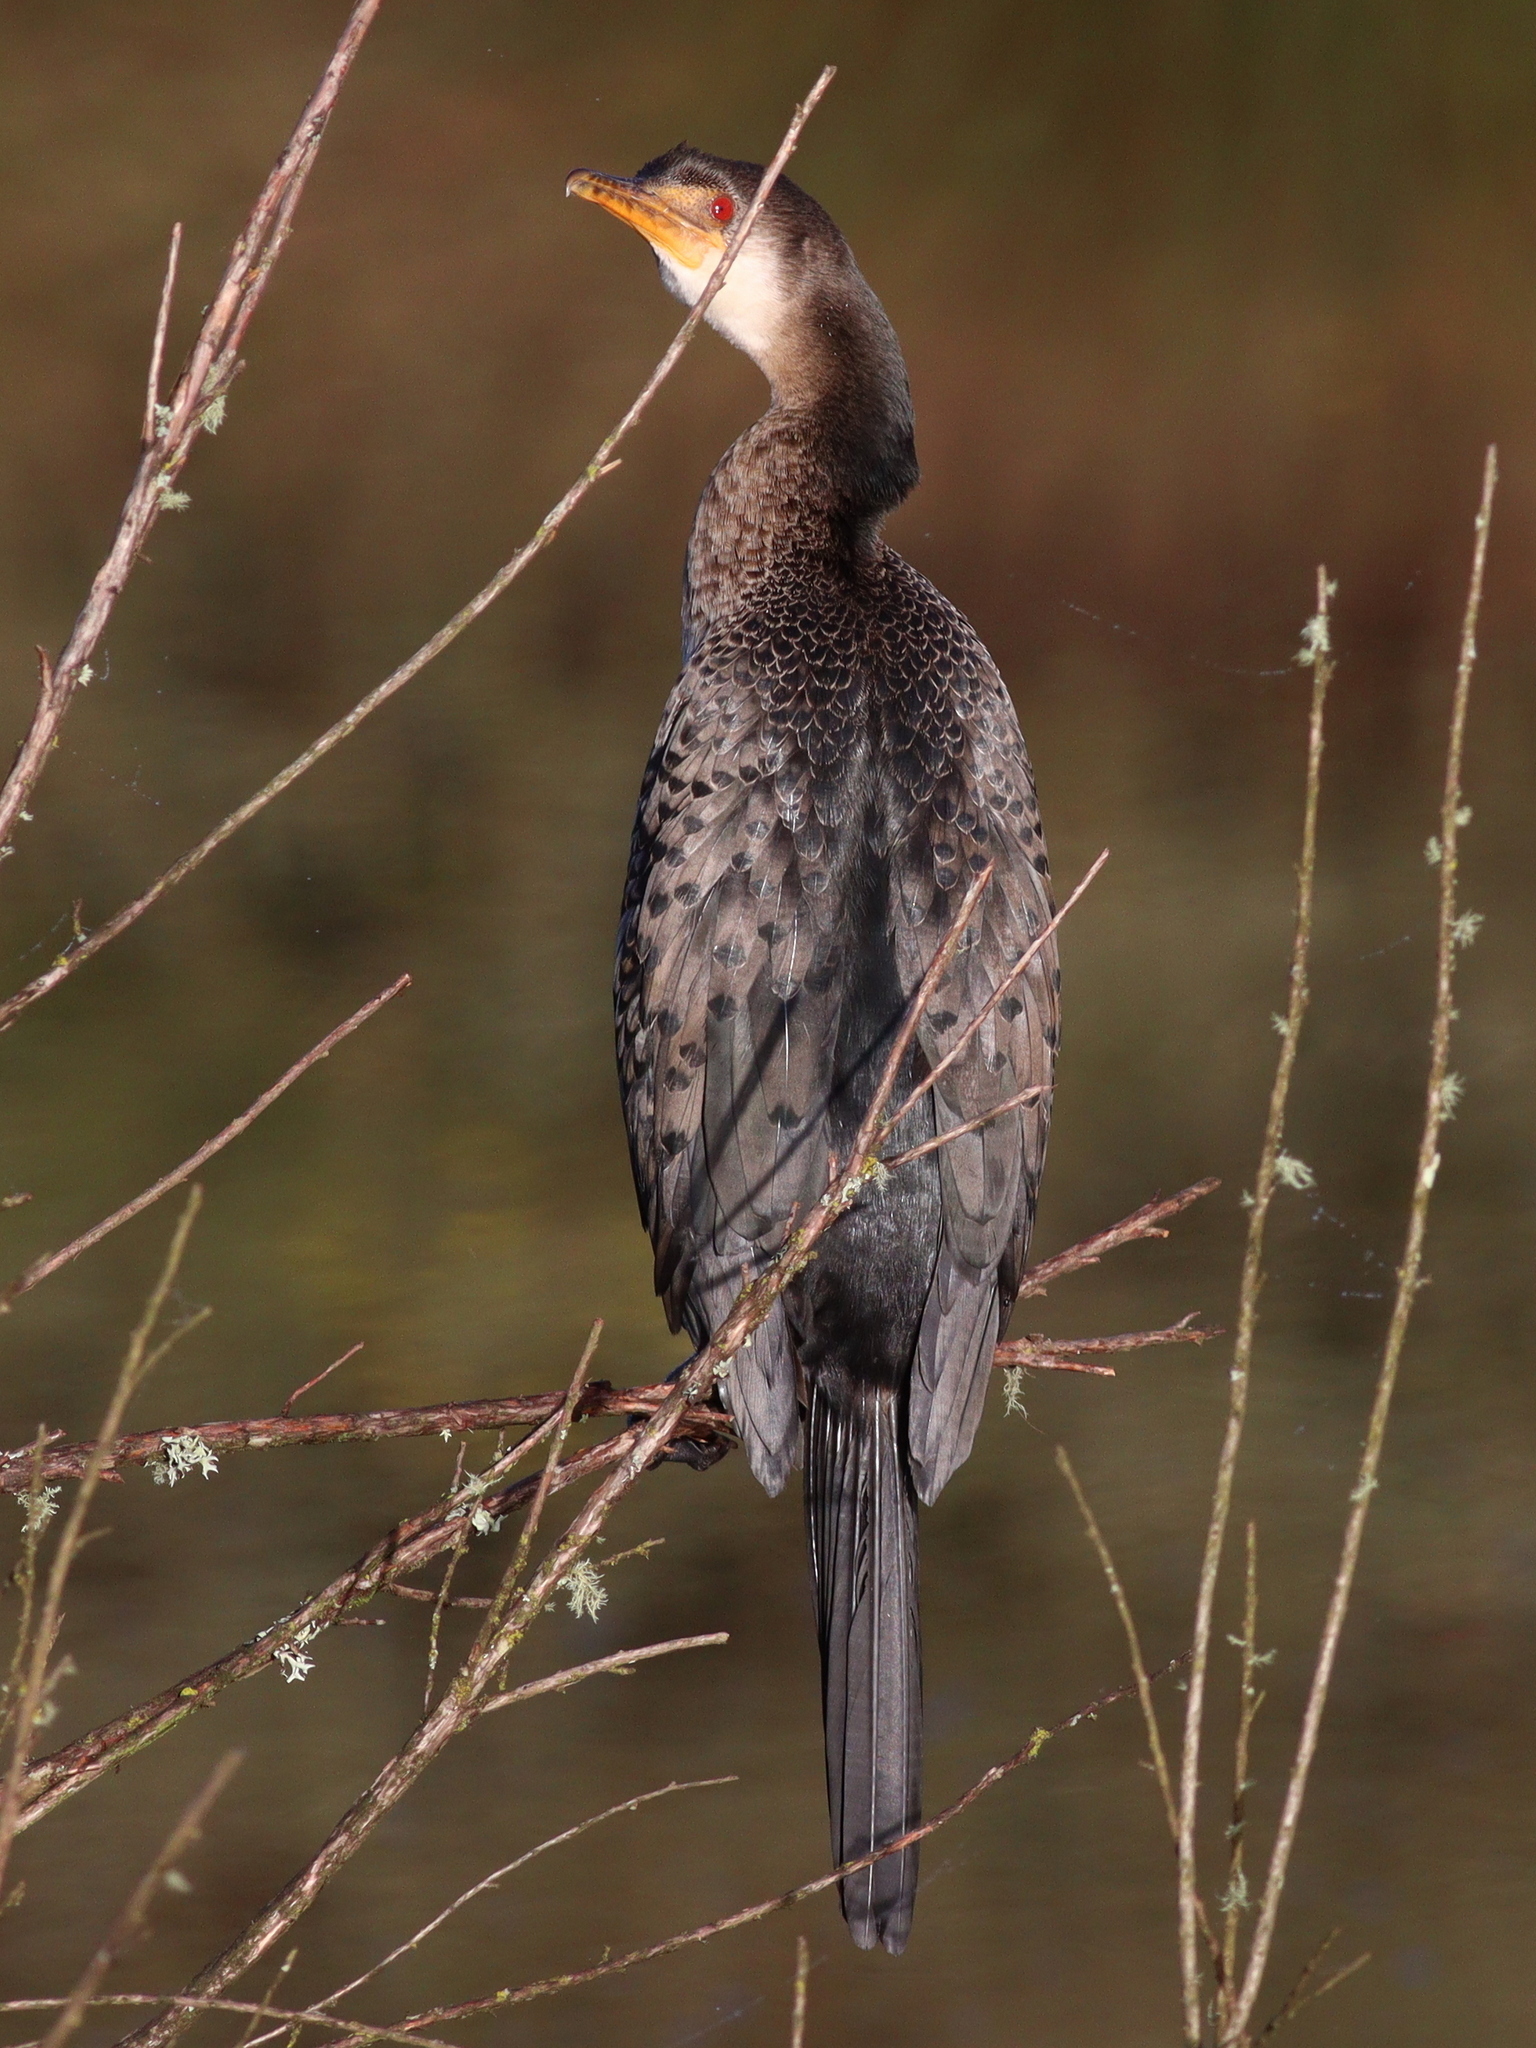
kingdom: Animalia
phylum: Chordata
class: Aves
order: Suliformes
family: Phalacrocoracidae
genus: Microcarbo
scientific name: Microcarbo africanus
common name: Long-tailed cormorant
